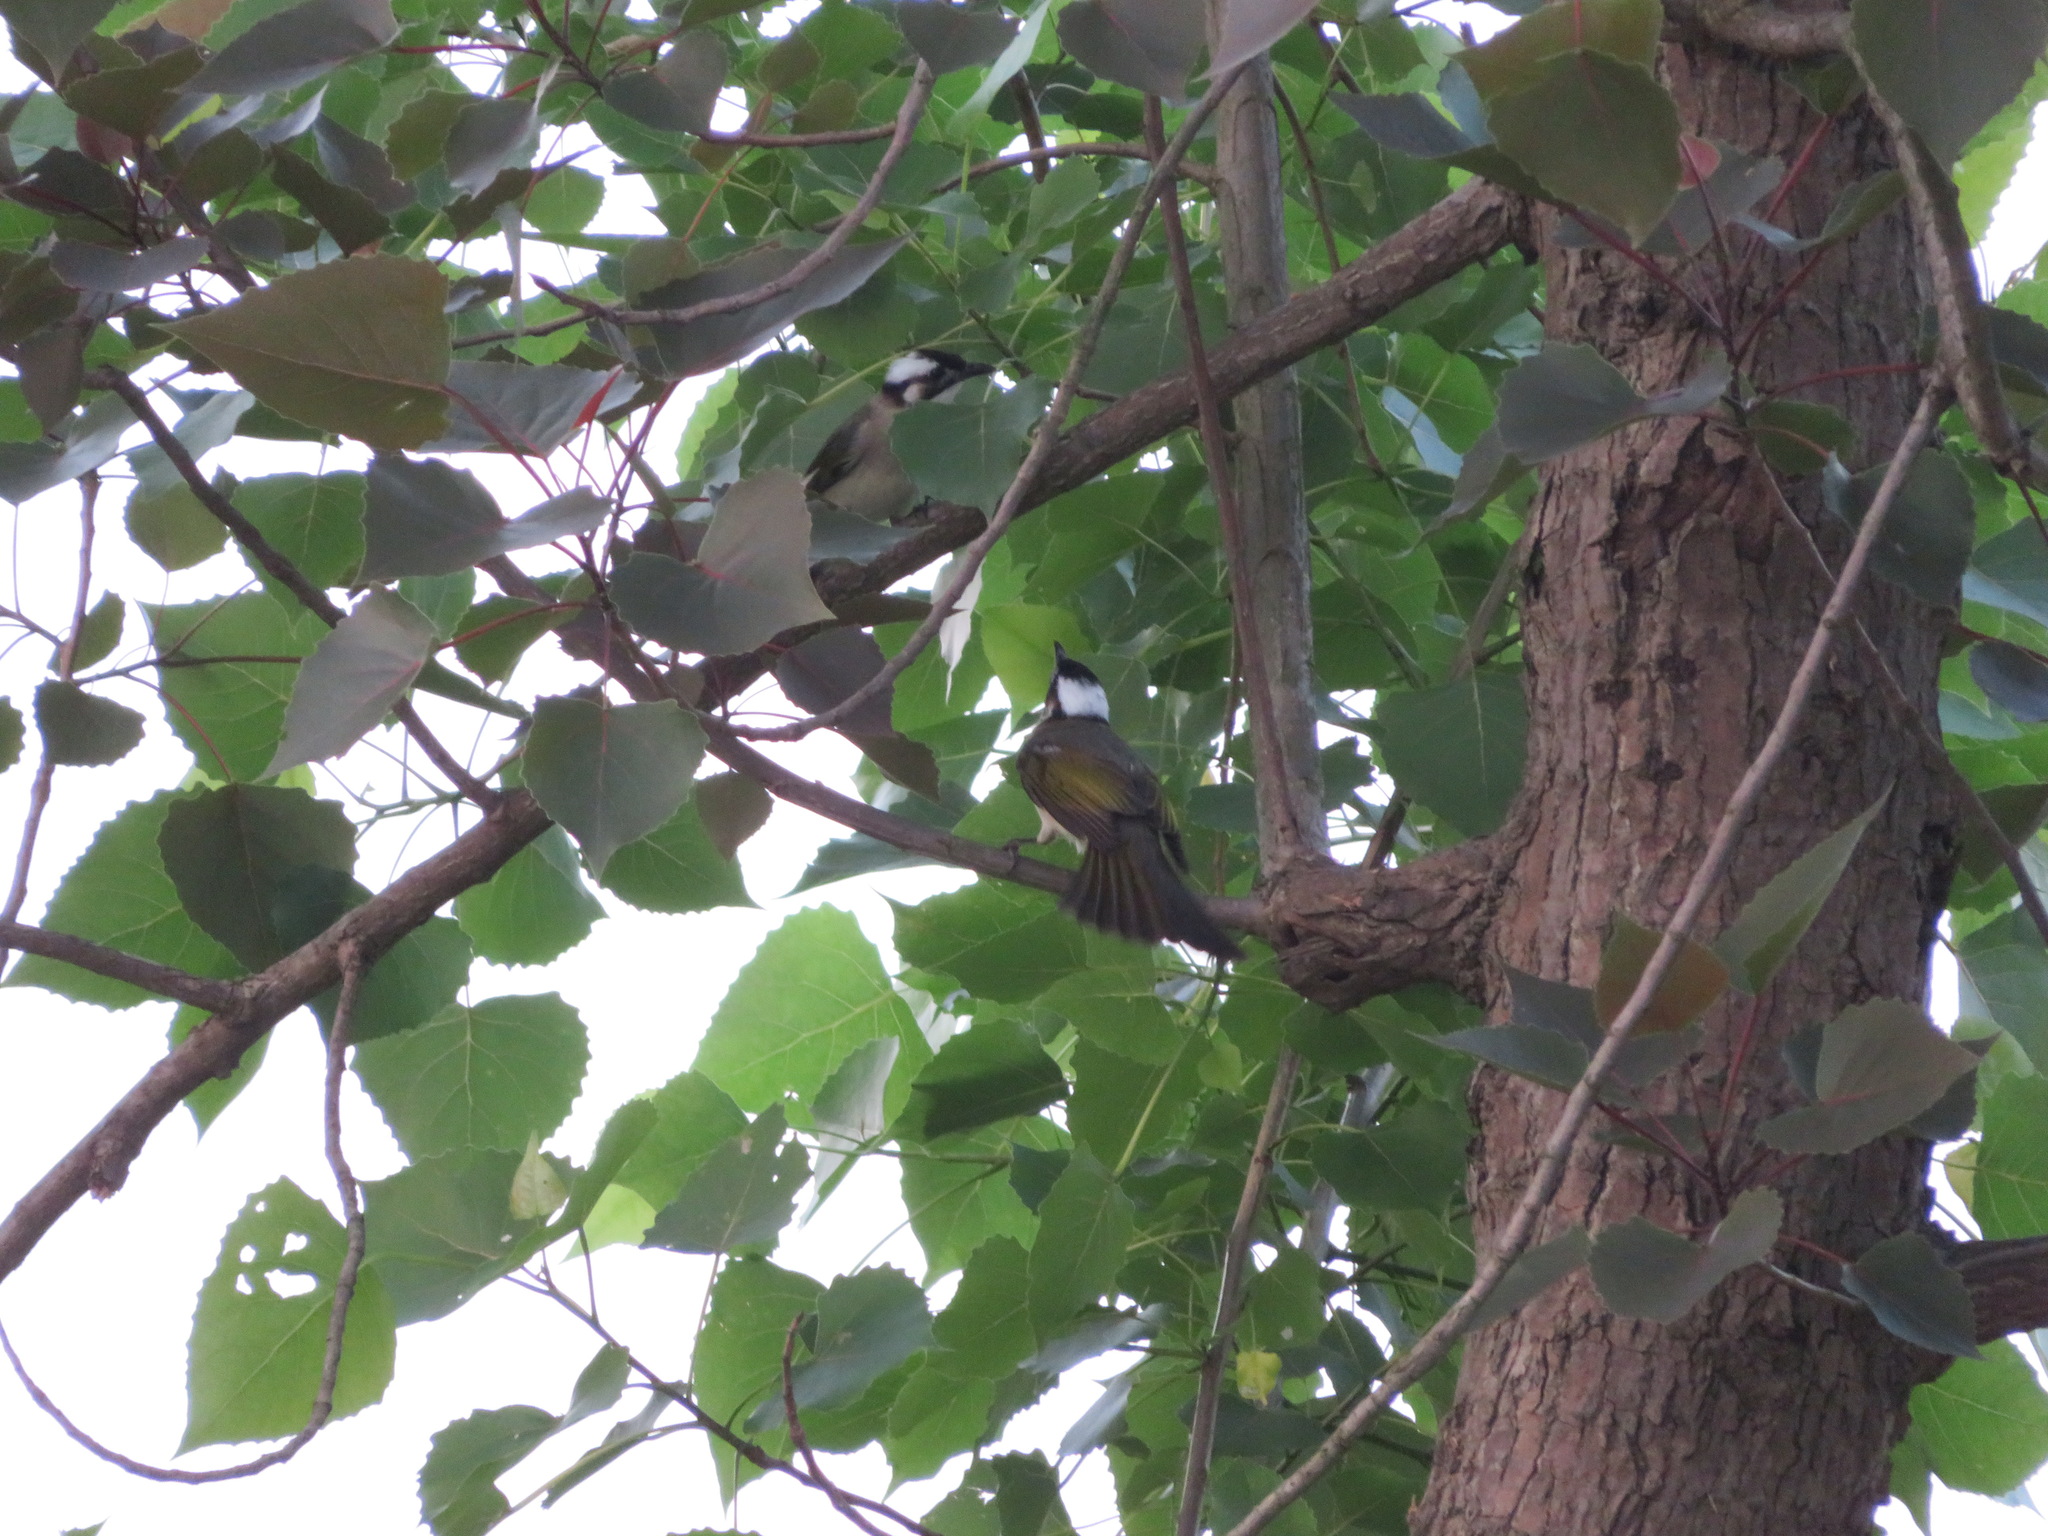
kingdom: Animalia
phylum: Chordata
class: Aves
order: Passeriformes
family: Pycnonotidae
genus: Pycnonotus
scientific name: Pycnonotus sinensis
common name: Light-vented bulbul
